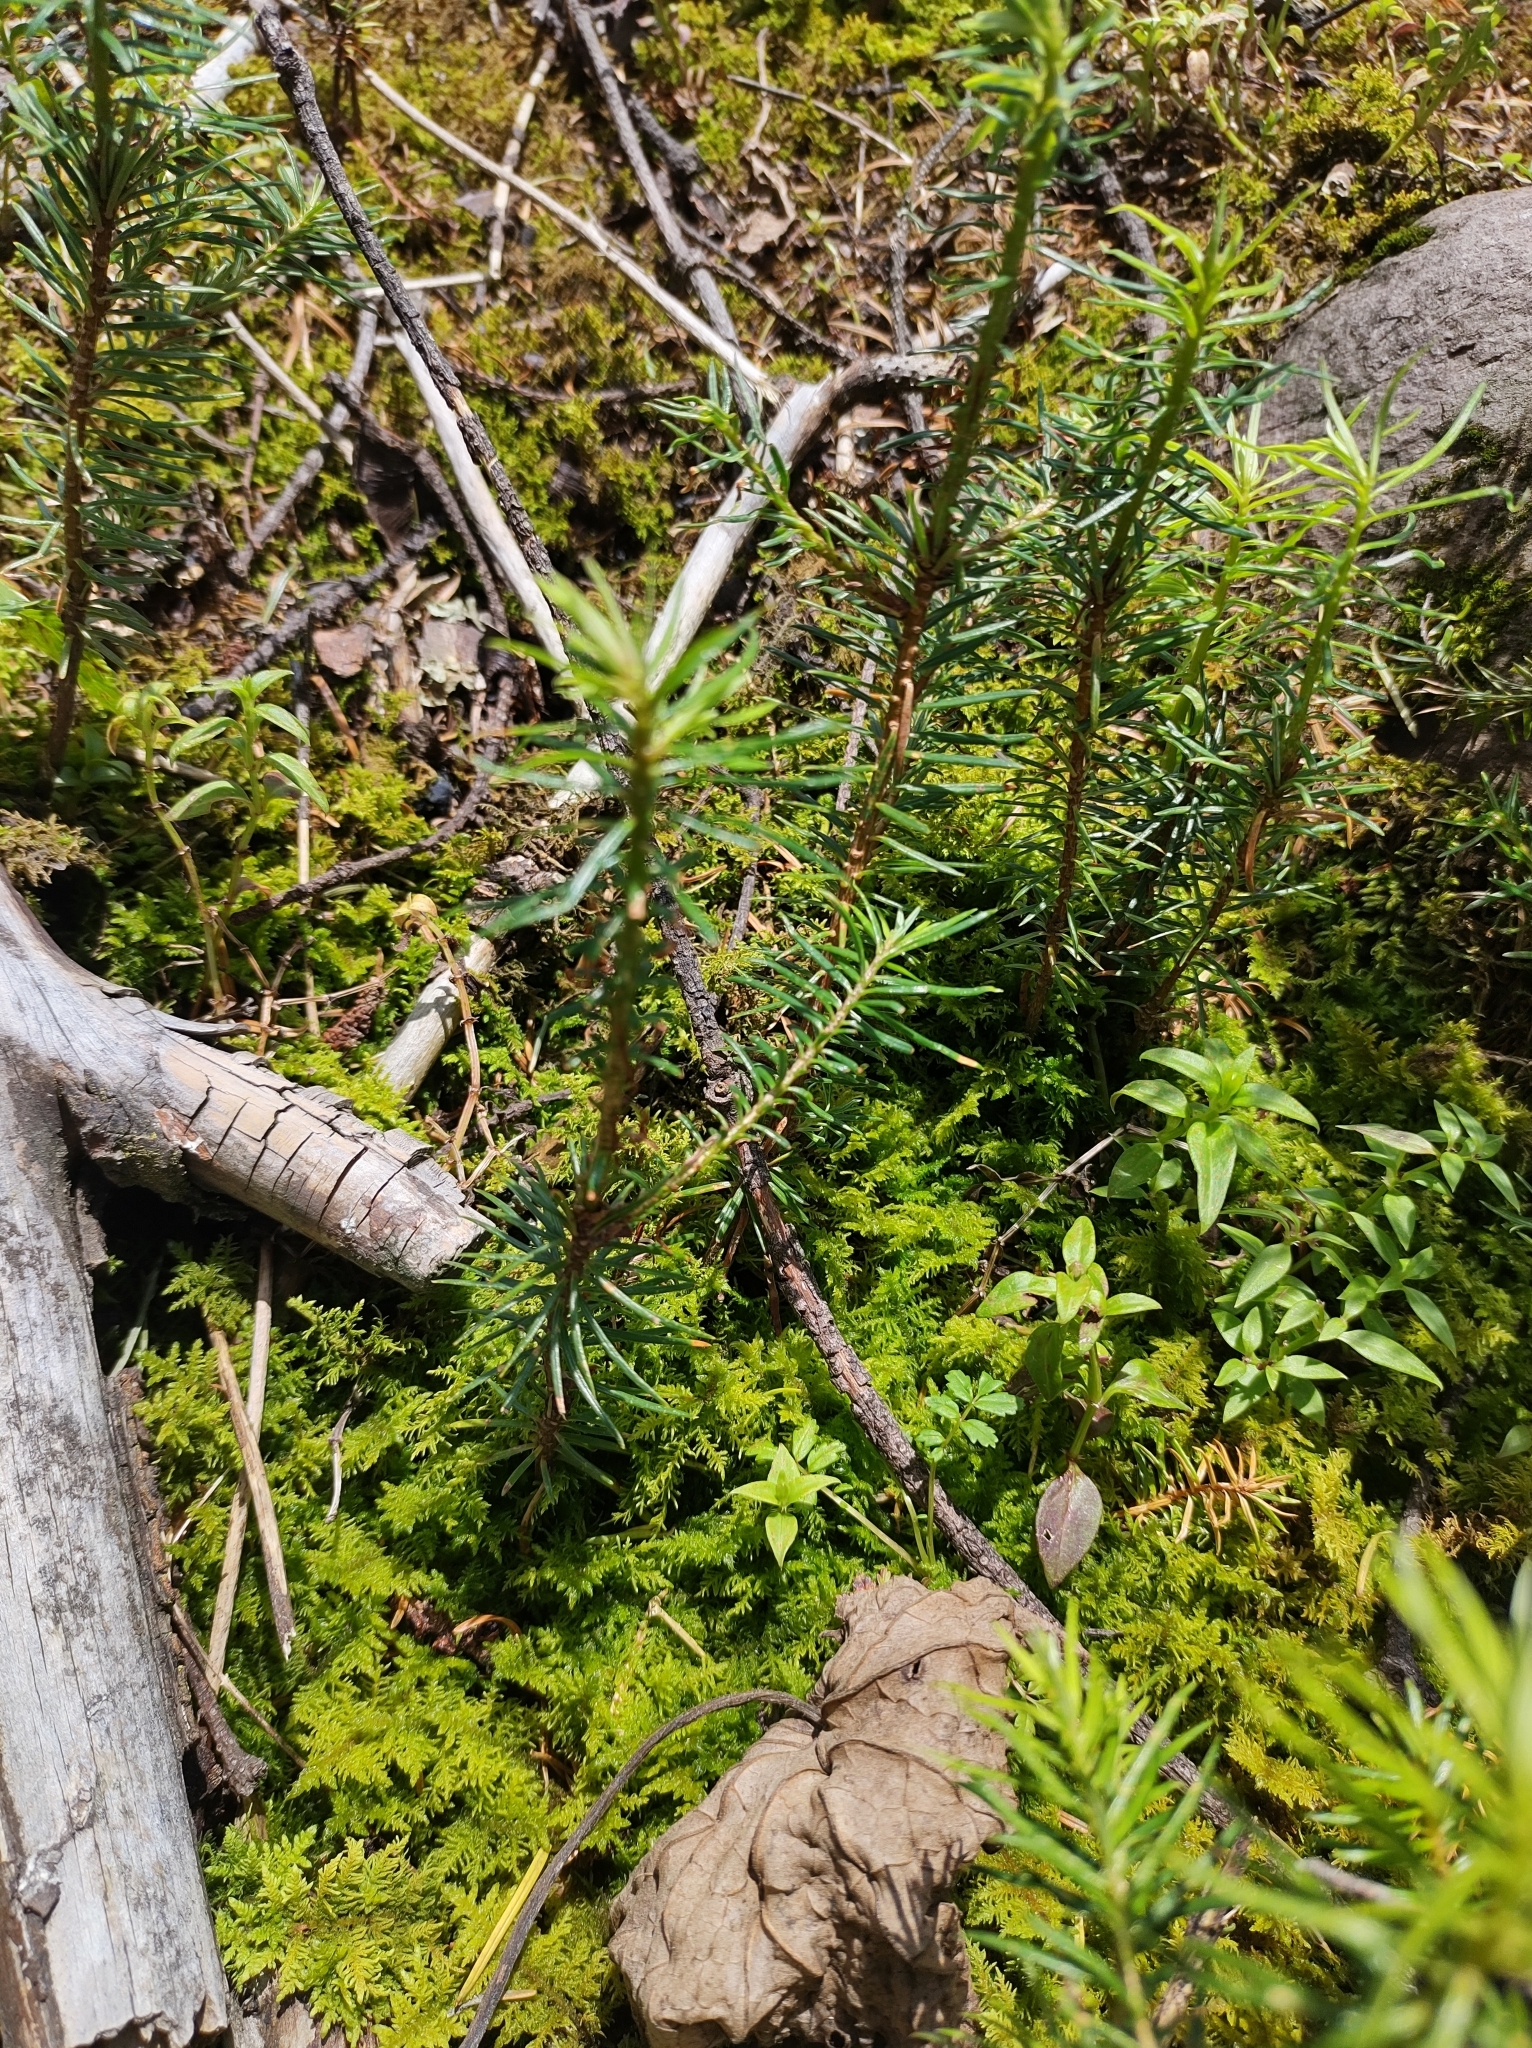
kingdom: Plantae
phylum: Tracheophyta
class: Pinopsida
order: Pinales
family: Pinaceae
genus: Abies
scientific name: Abies religiosa
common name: Sacred fir
